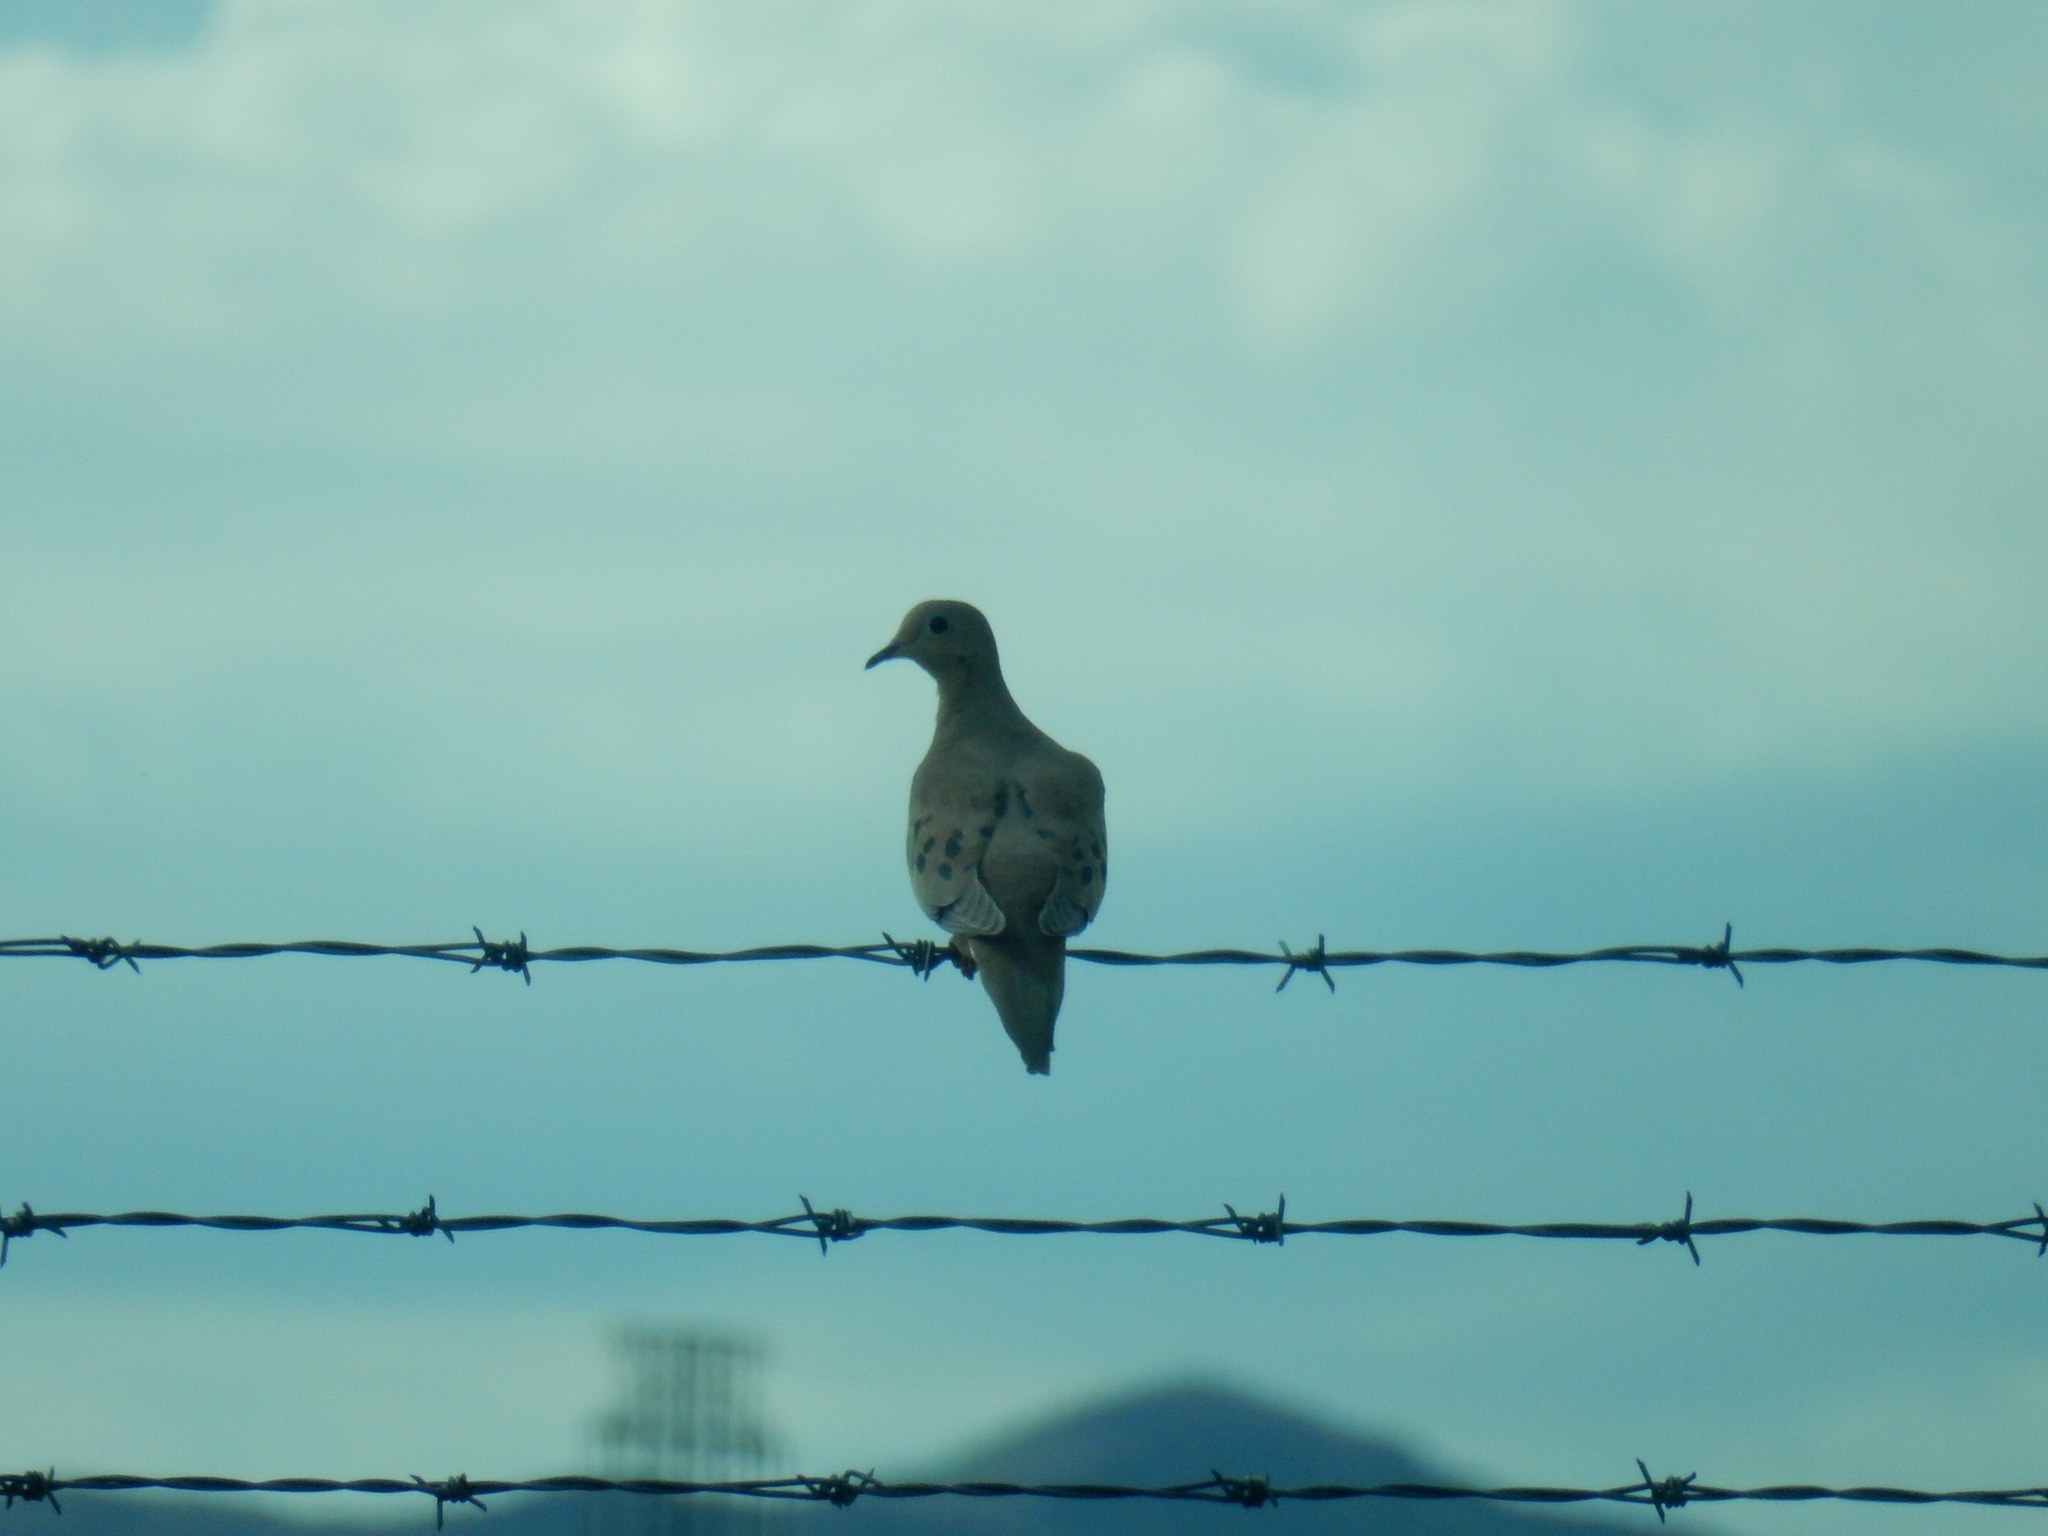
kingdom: Animalia
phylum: Chordata
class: Aves
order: Columbiformes
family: Columbidae
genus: Zenaida
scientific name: Zenaida macroura
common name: Mourning dove
